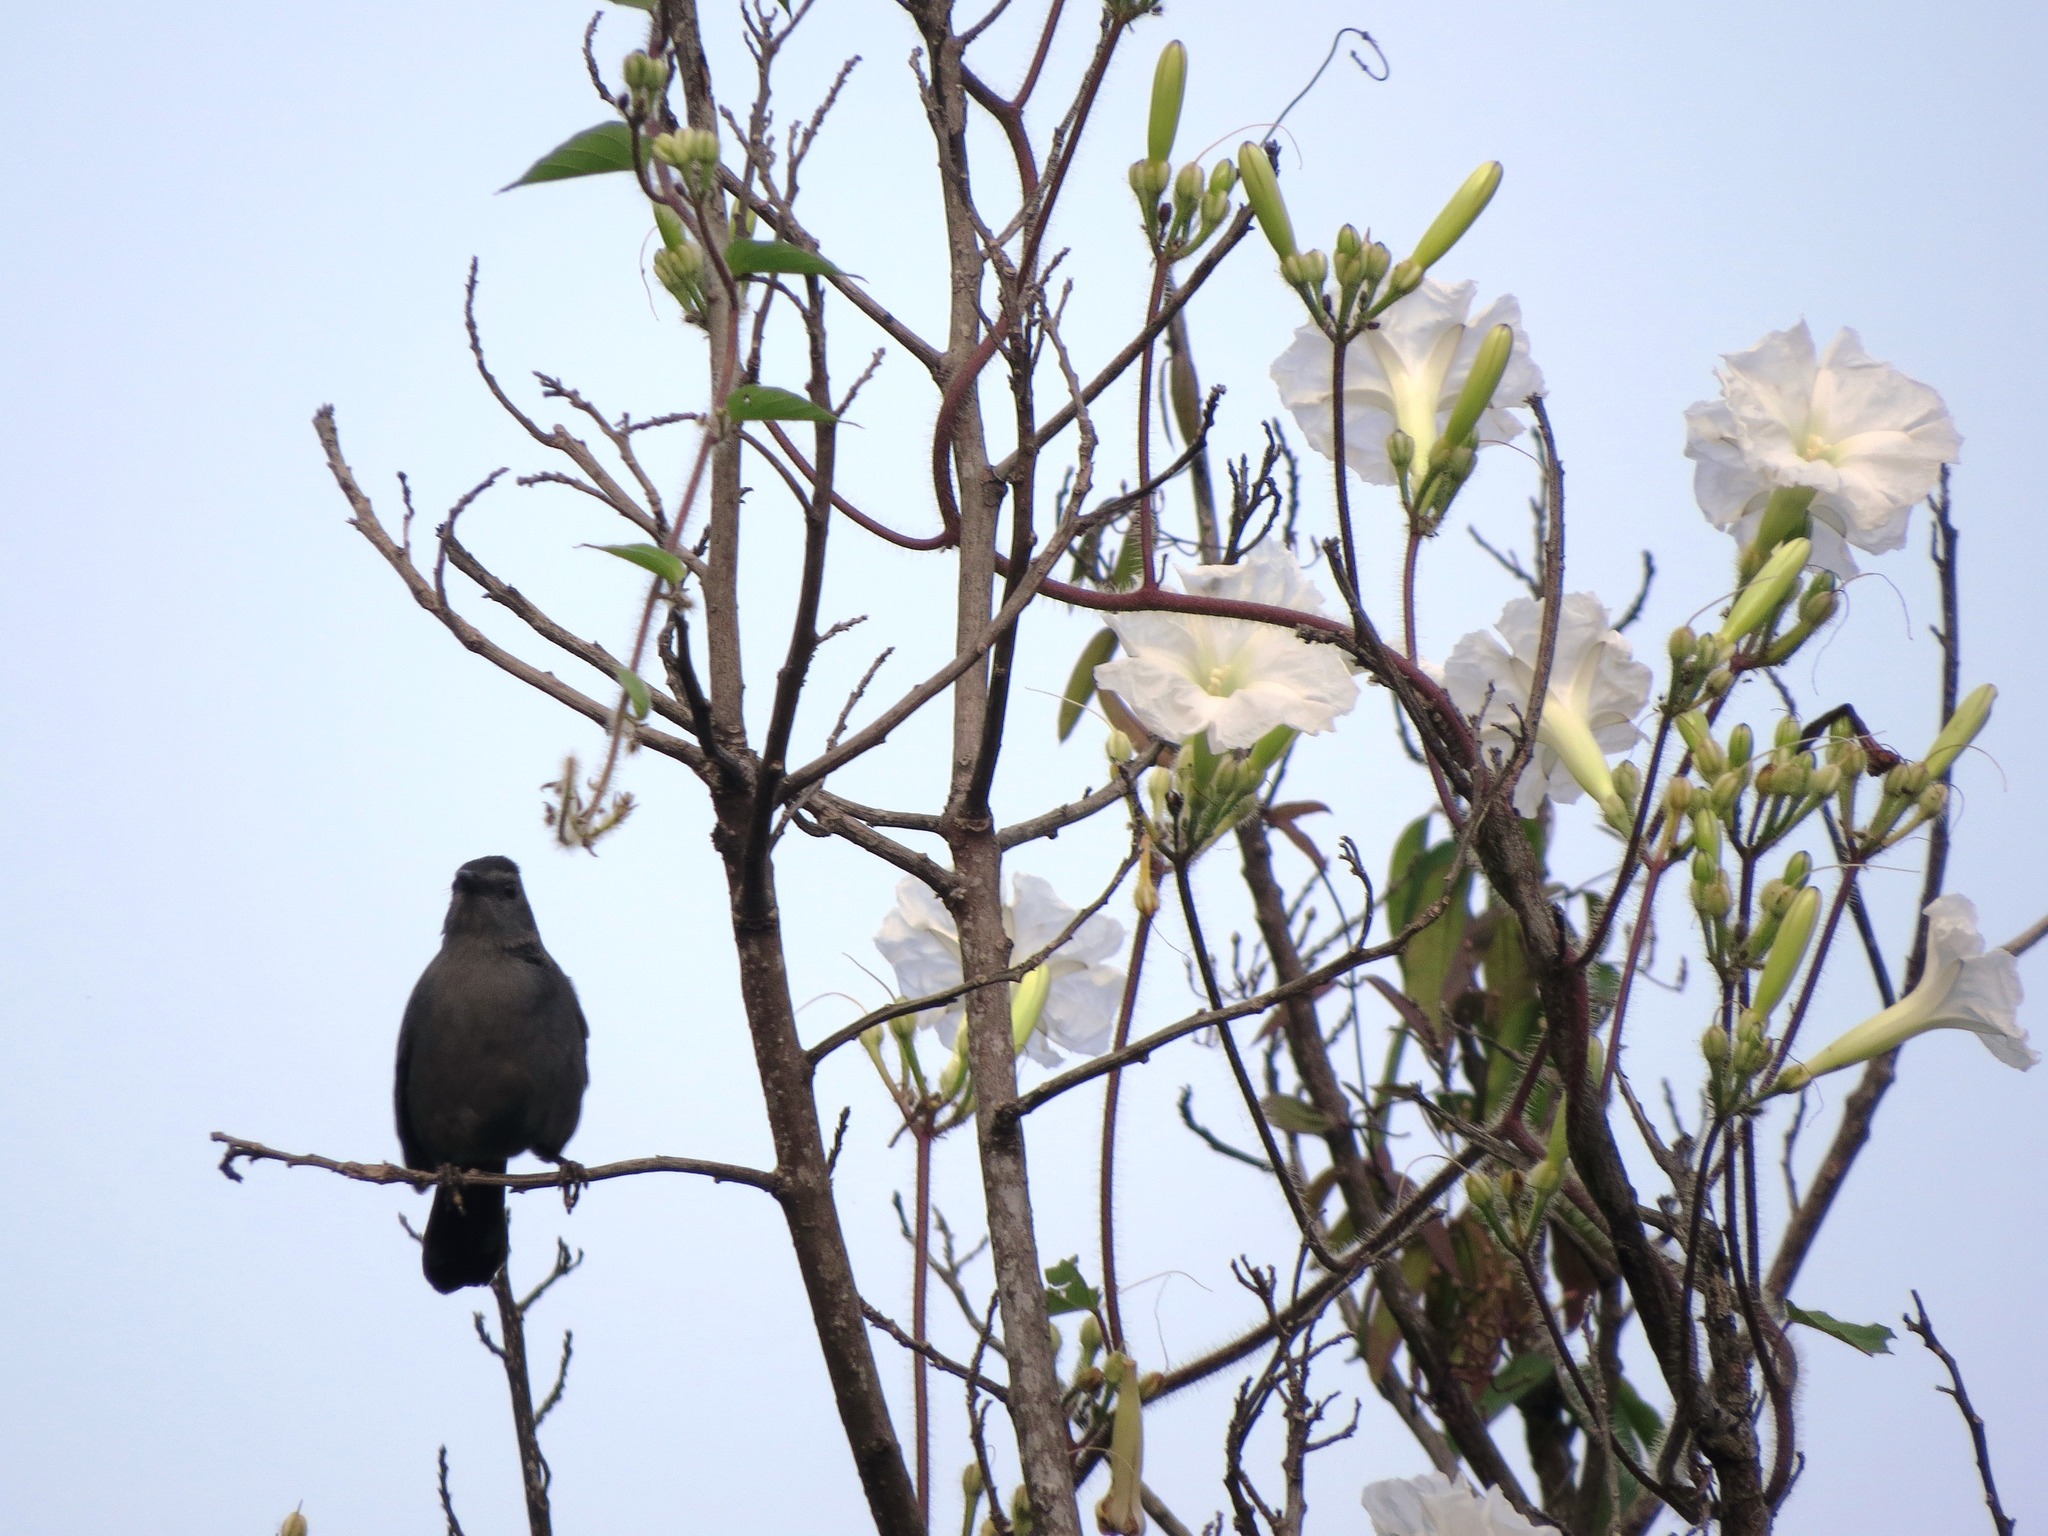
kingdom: Animalia
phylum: Chordata
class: Aves
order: Passeriformes
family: Mimidae
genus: Dumetella
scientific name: Dumetella carolinensis
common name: Gray catbird
